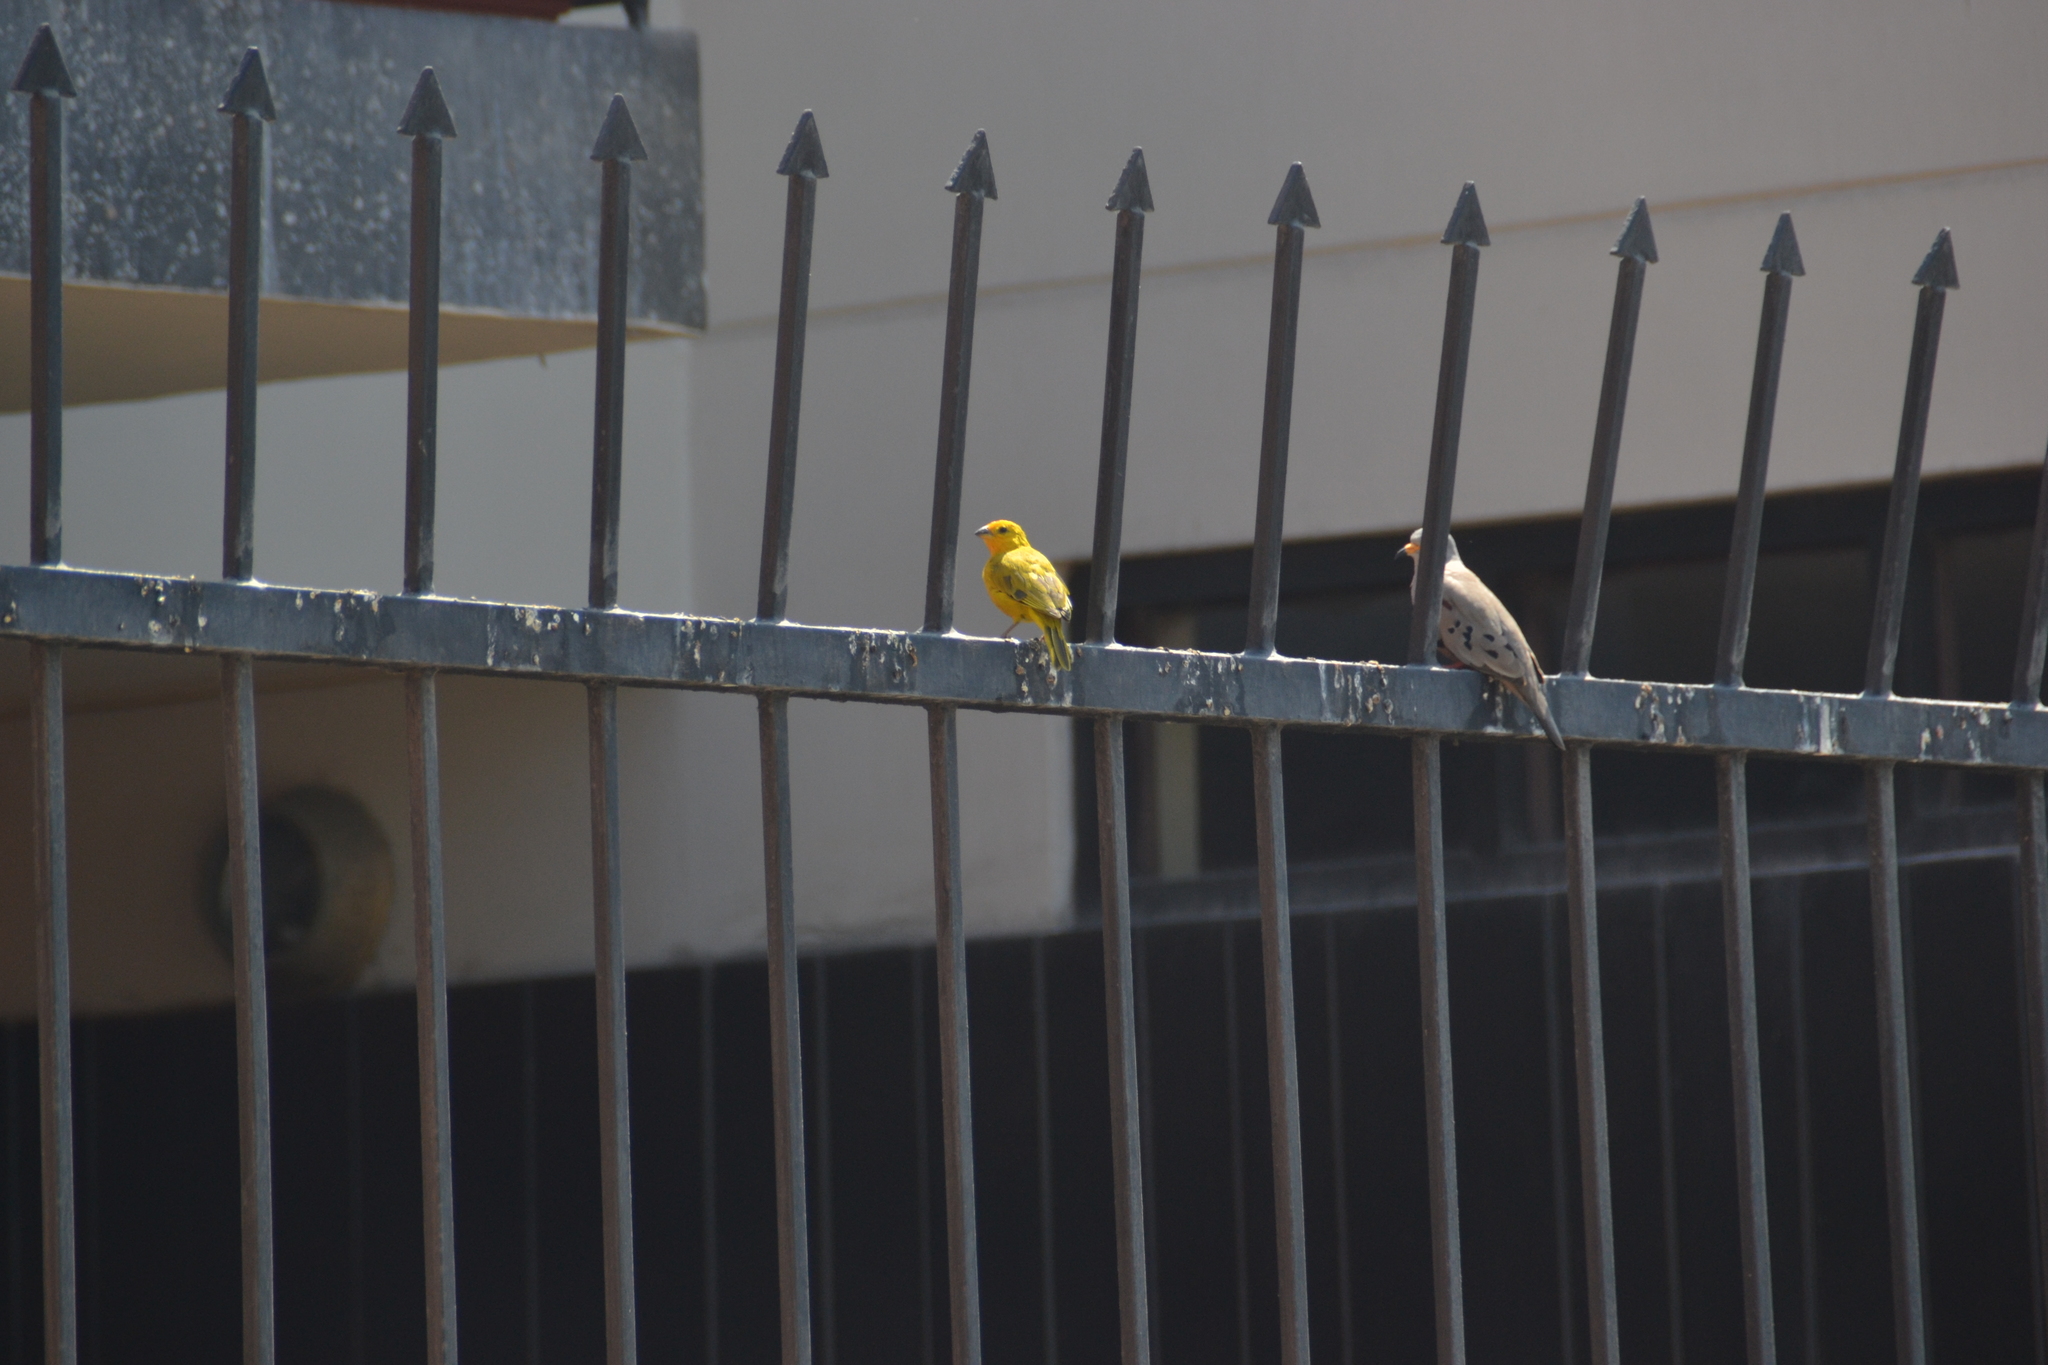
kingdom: Animalia
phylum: Chordata
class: Aves
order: Passeriformes
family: Thraupidae
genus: Sicalis
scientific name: Sicalis flaveola
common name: Saffron finch
